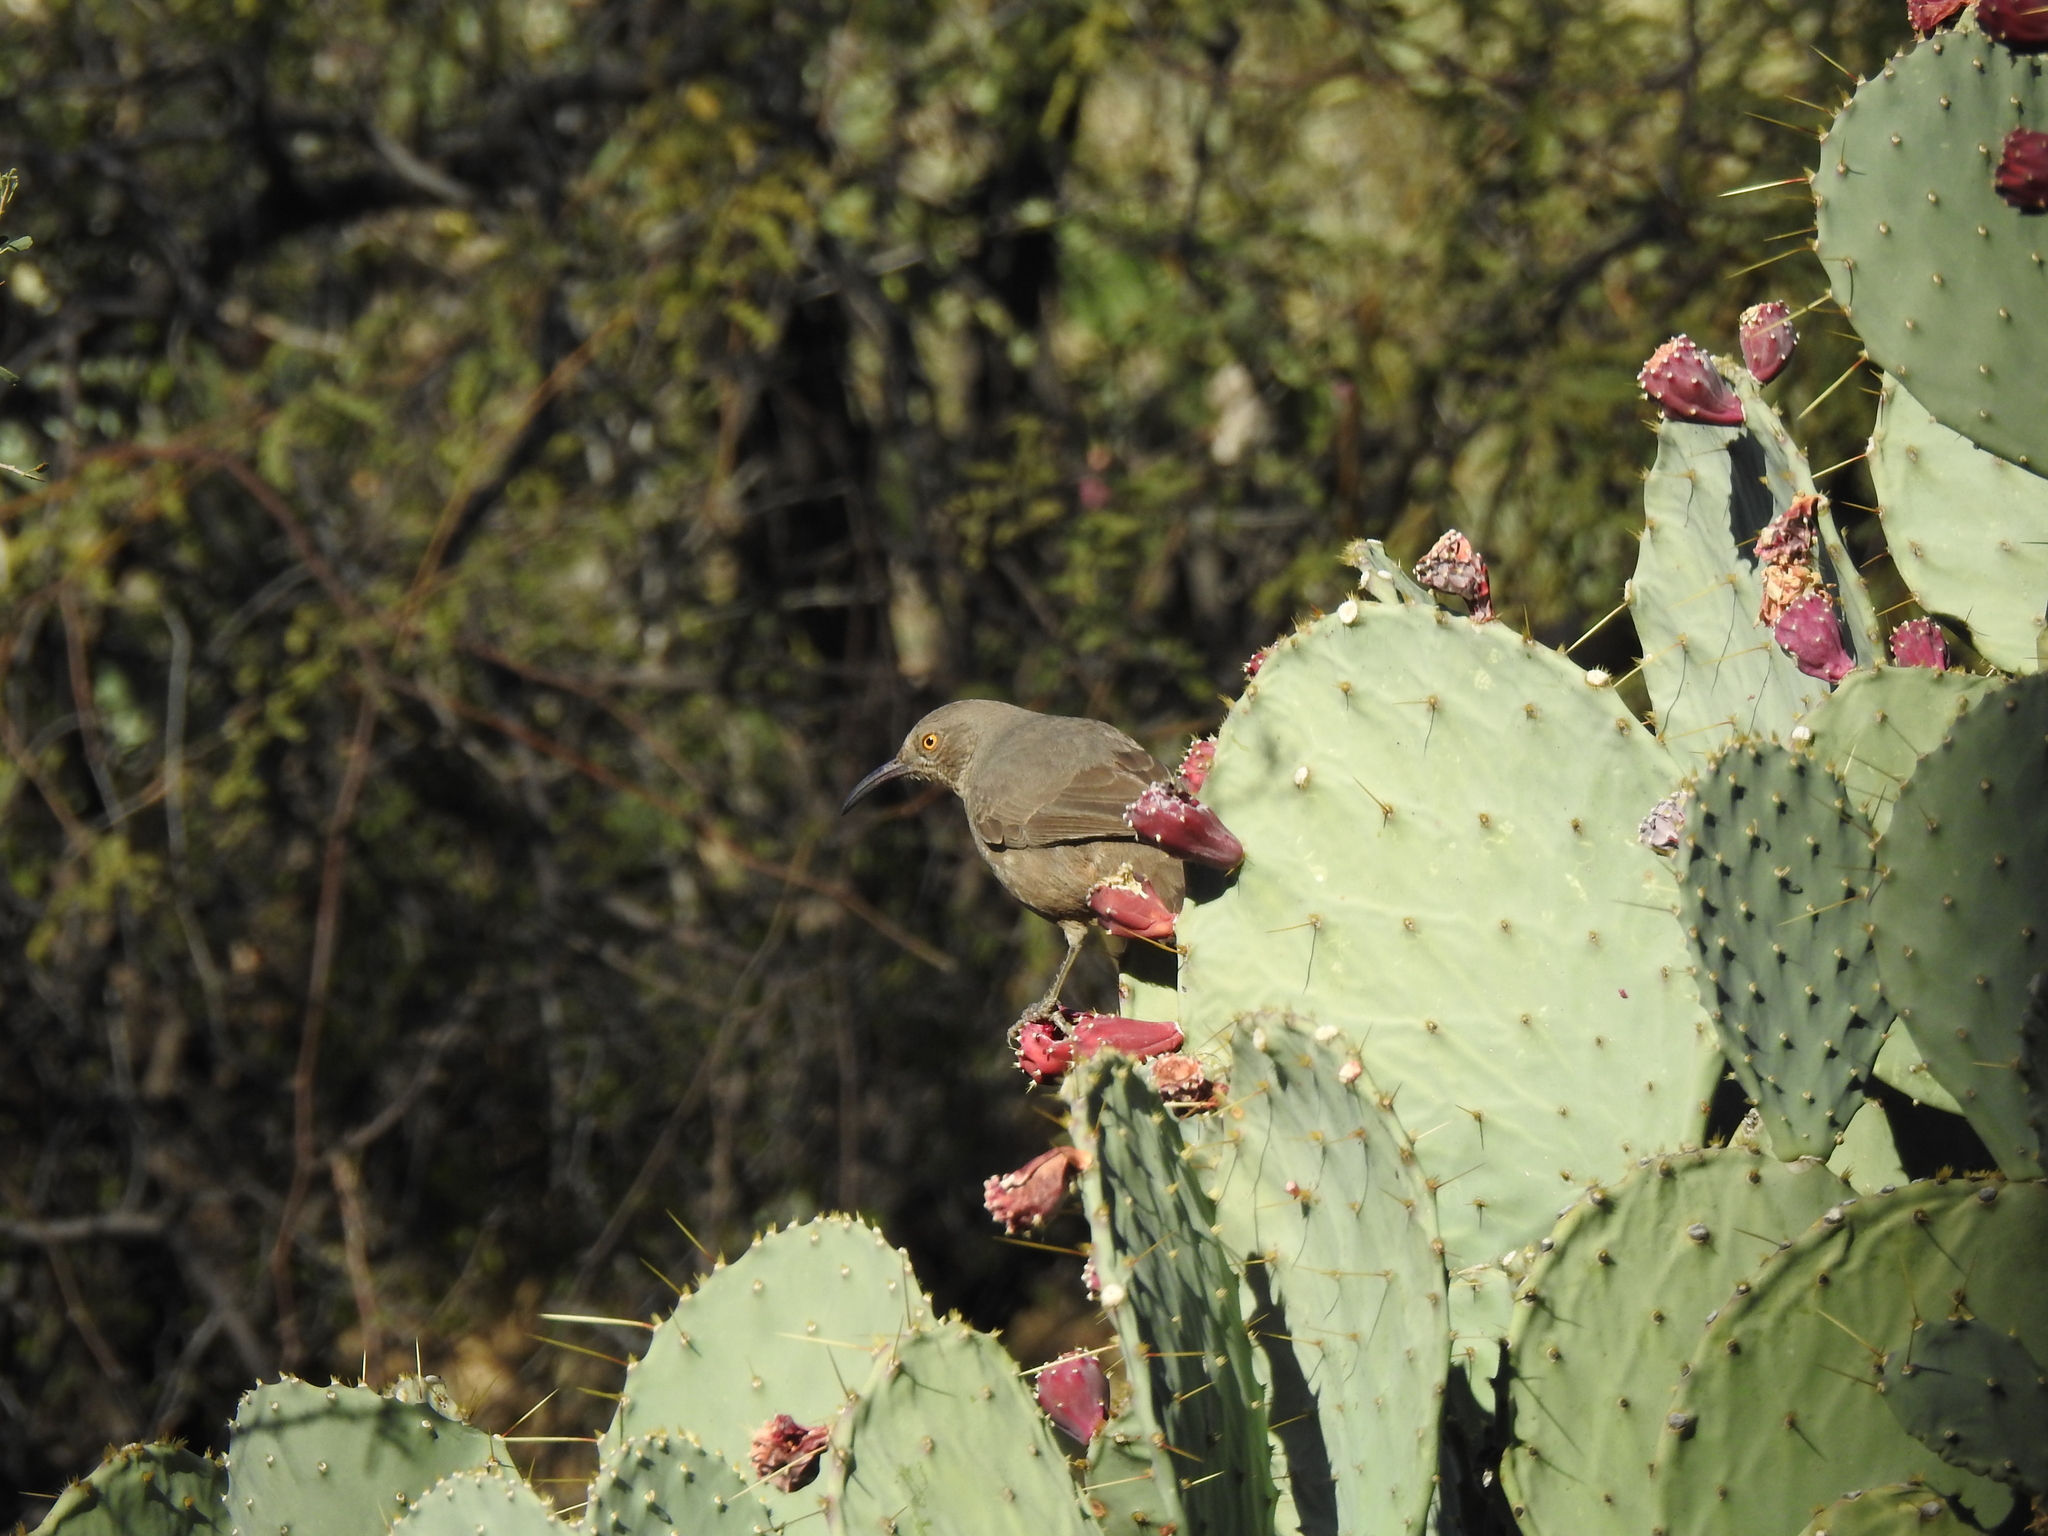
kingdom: Animalia
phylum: Chordata
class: Aves
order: Passeriformes
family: Mimidae
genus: Toxostoma
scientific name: Toxostoma curvirostre
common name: Curve-billed thrasher
